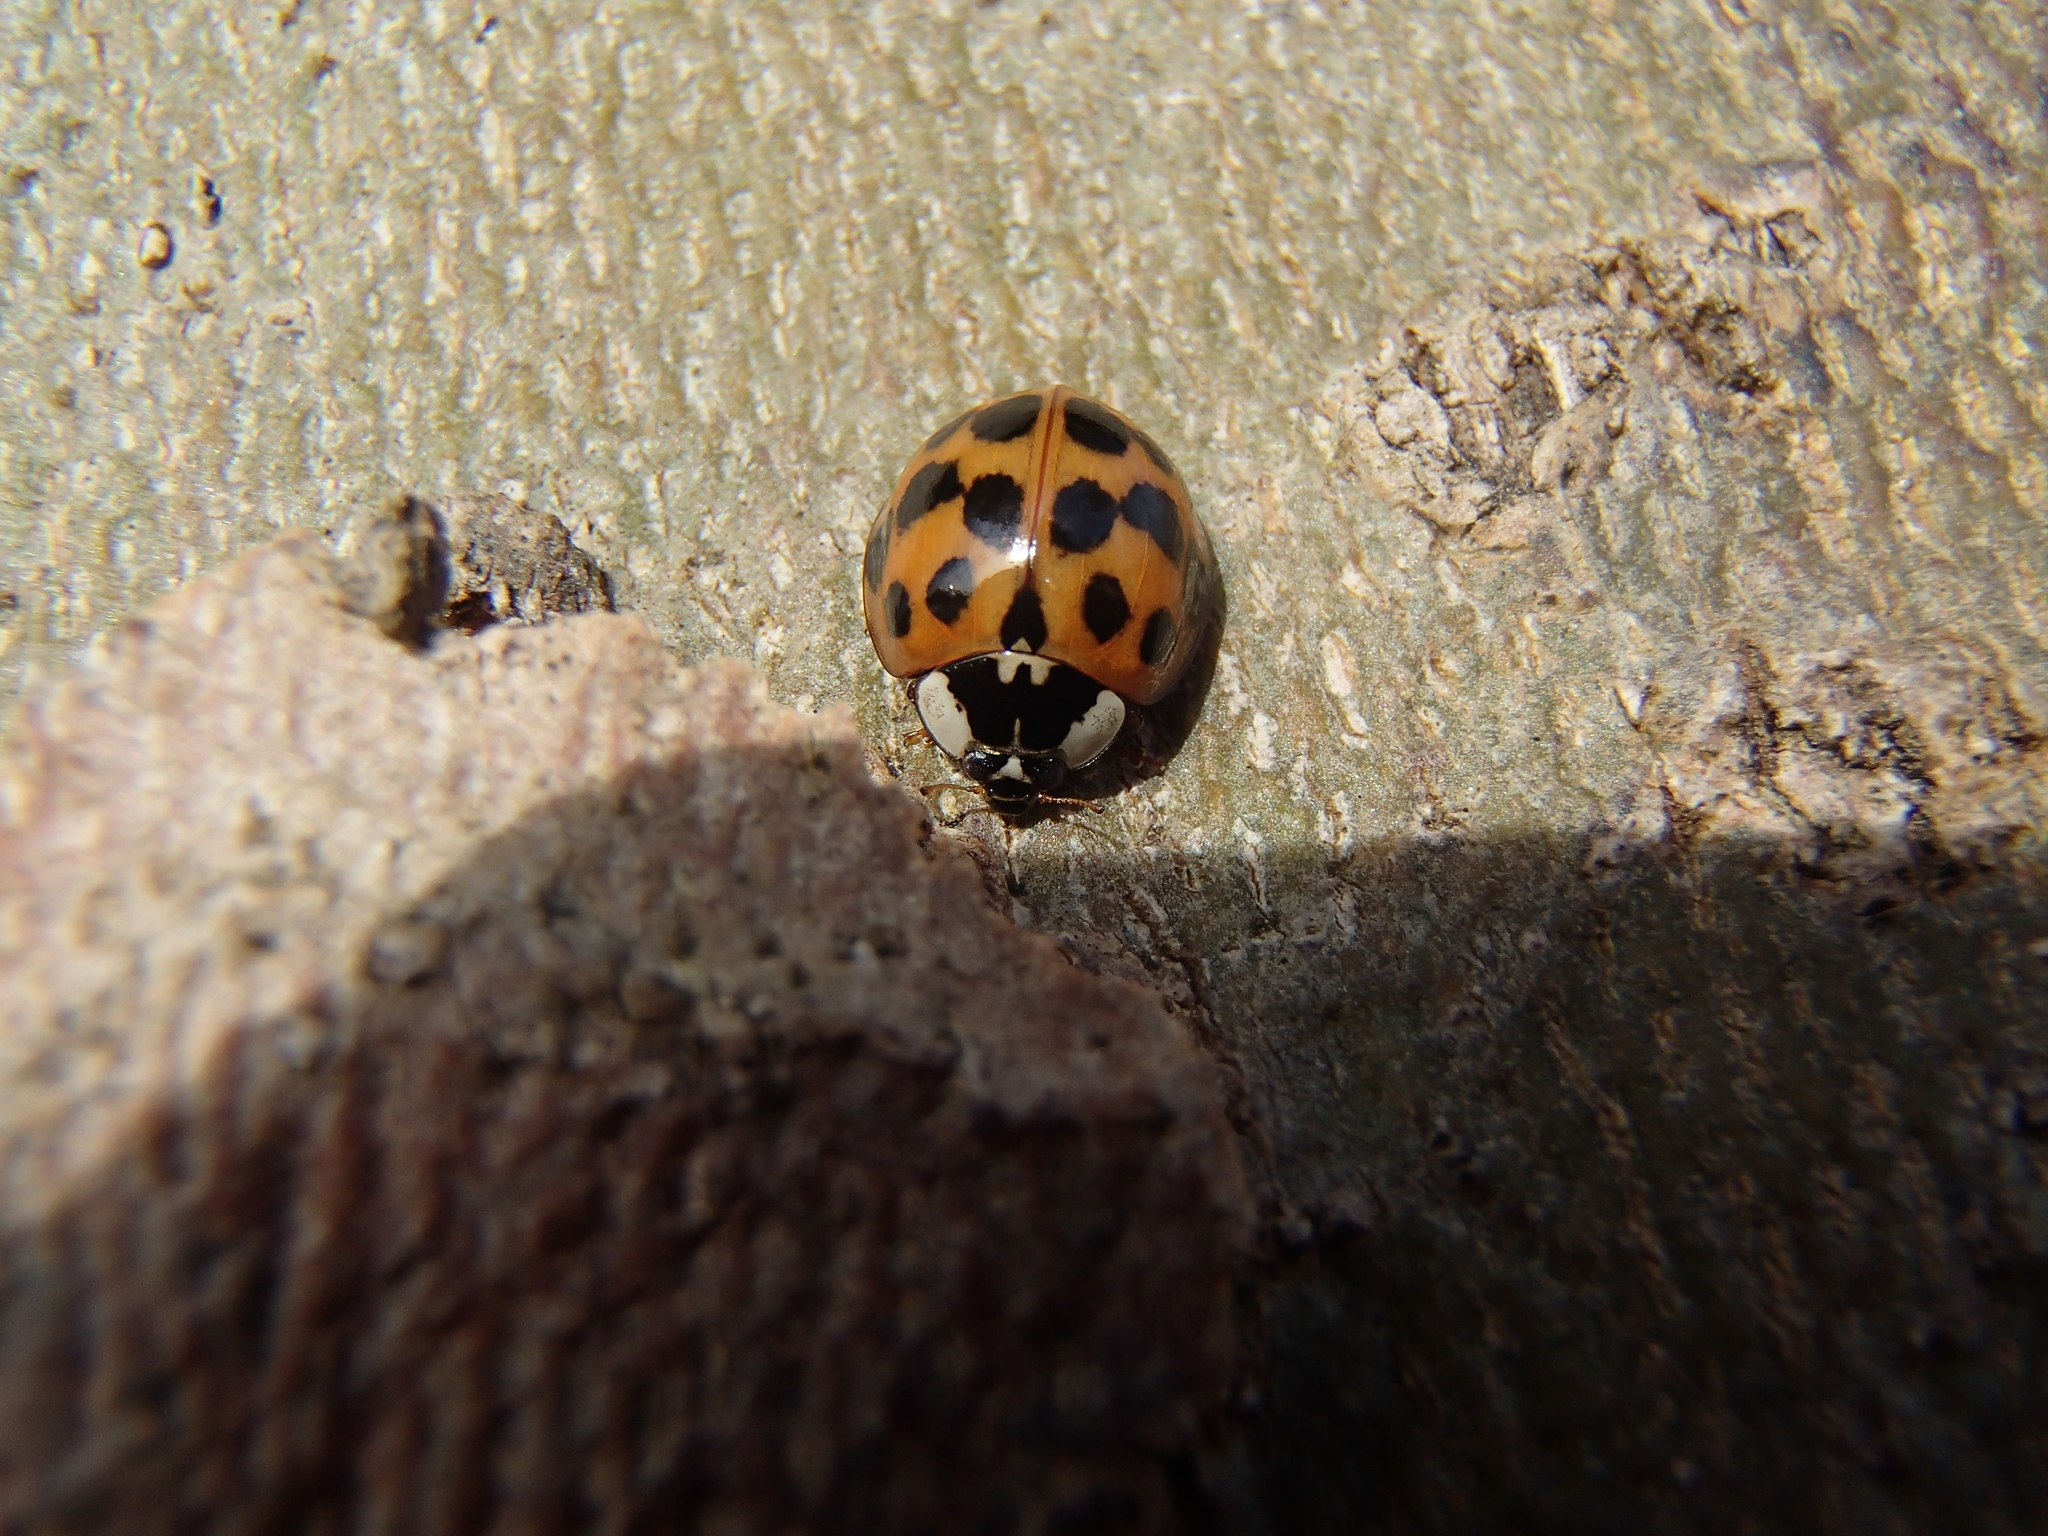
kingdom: Animalia
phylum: Arthropoda
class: Insecta
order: Coleoptera
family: Coccinellidae
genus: Harmonia
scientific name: Harmonia axyridis
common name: Harlequin ladybird
